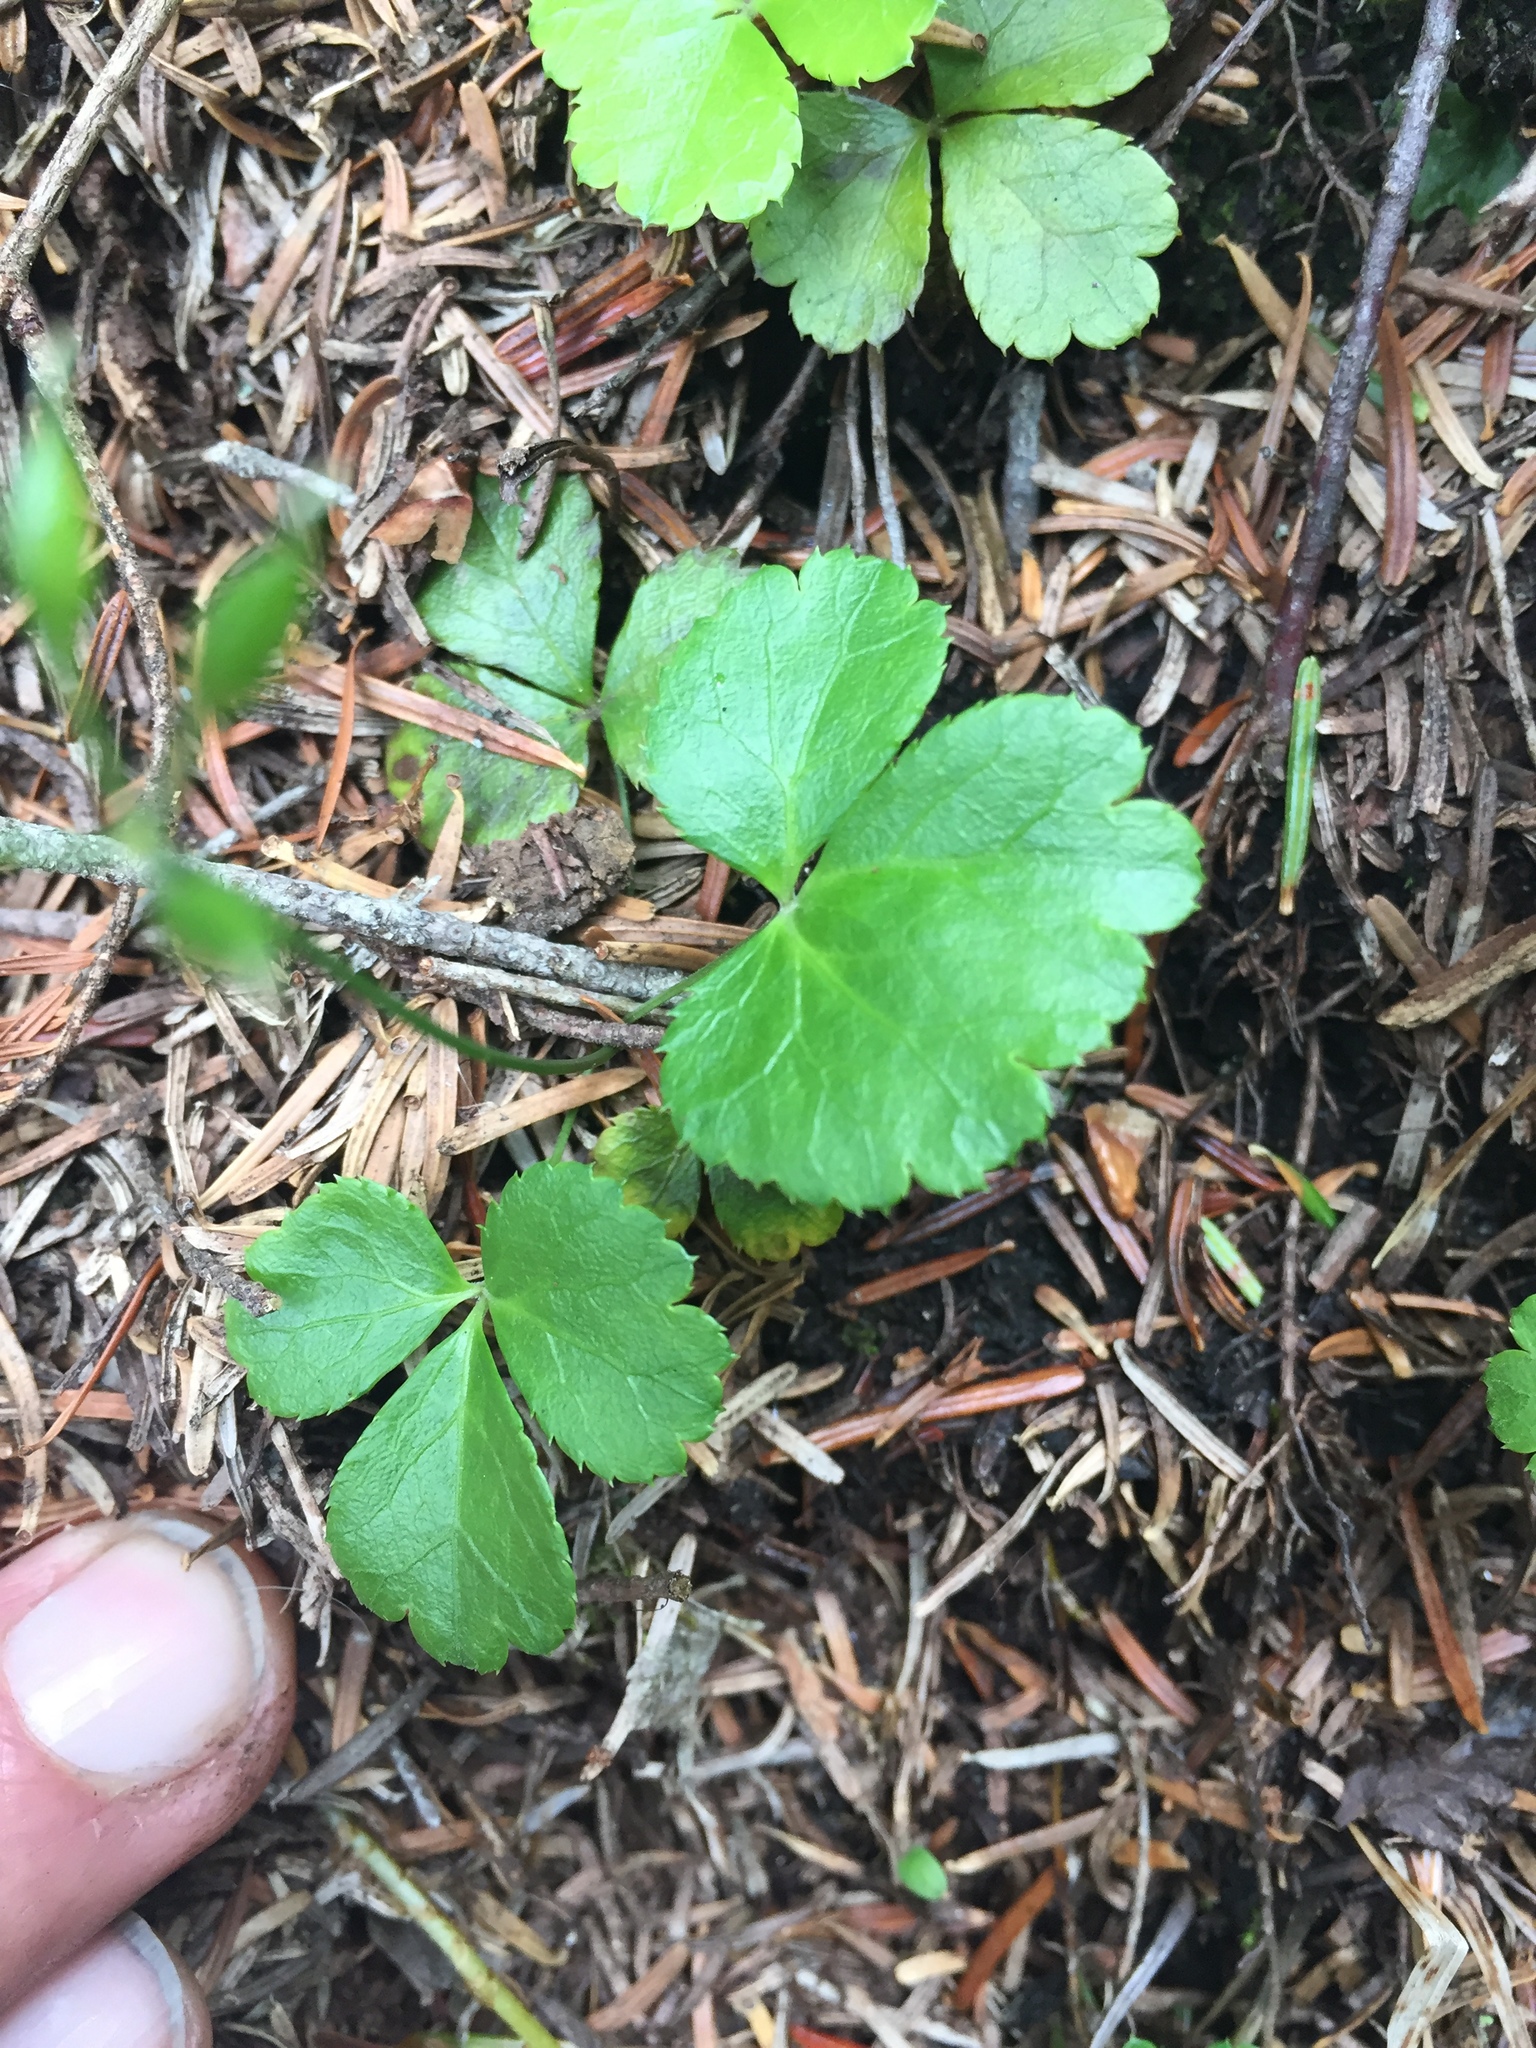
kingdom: Plantae
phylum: Tracheophyta
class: Magnoliopsida
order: Ranunculales
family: Ranunculaceae
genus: Coptis
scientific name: Coptis trifolia
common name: Canker-root
